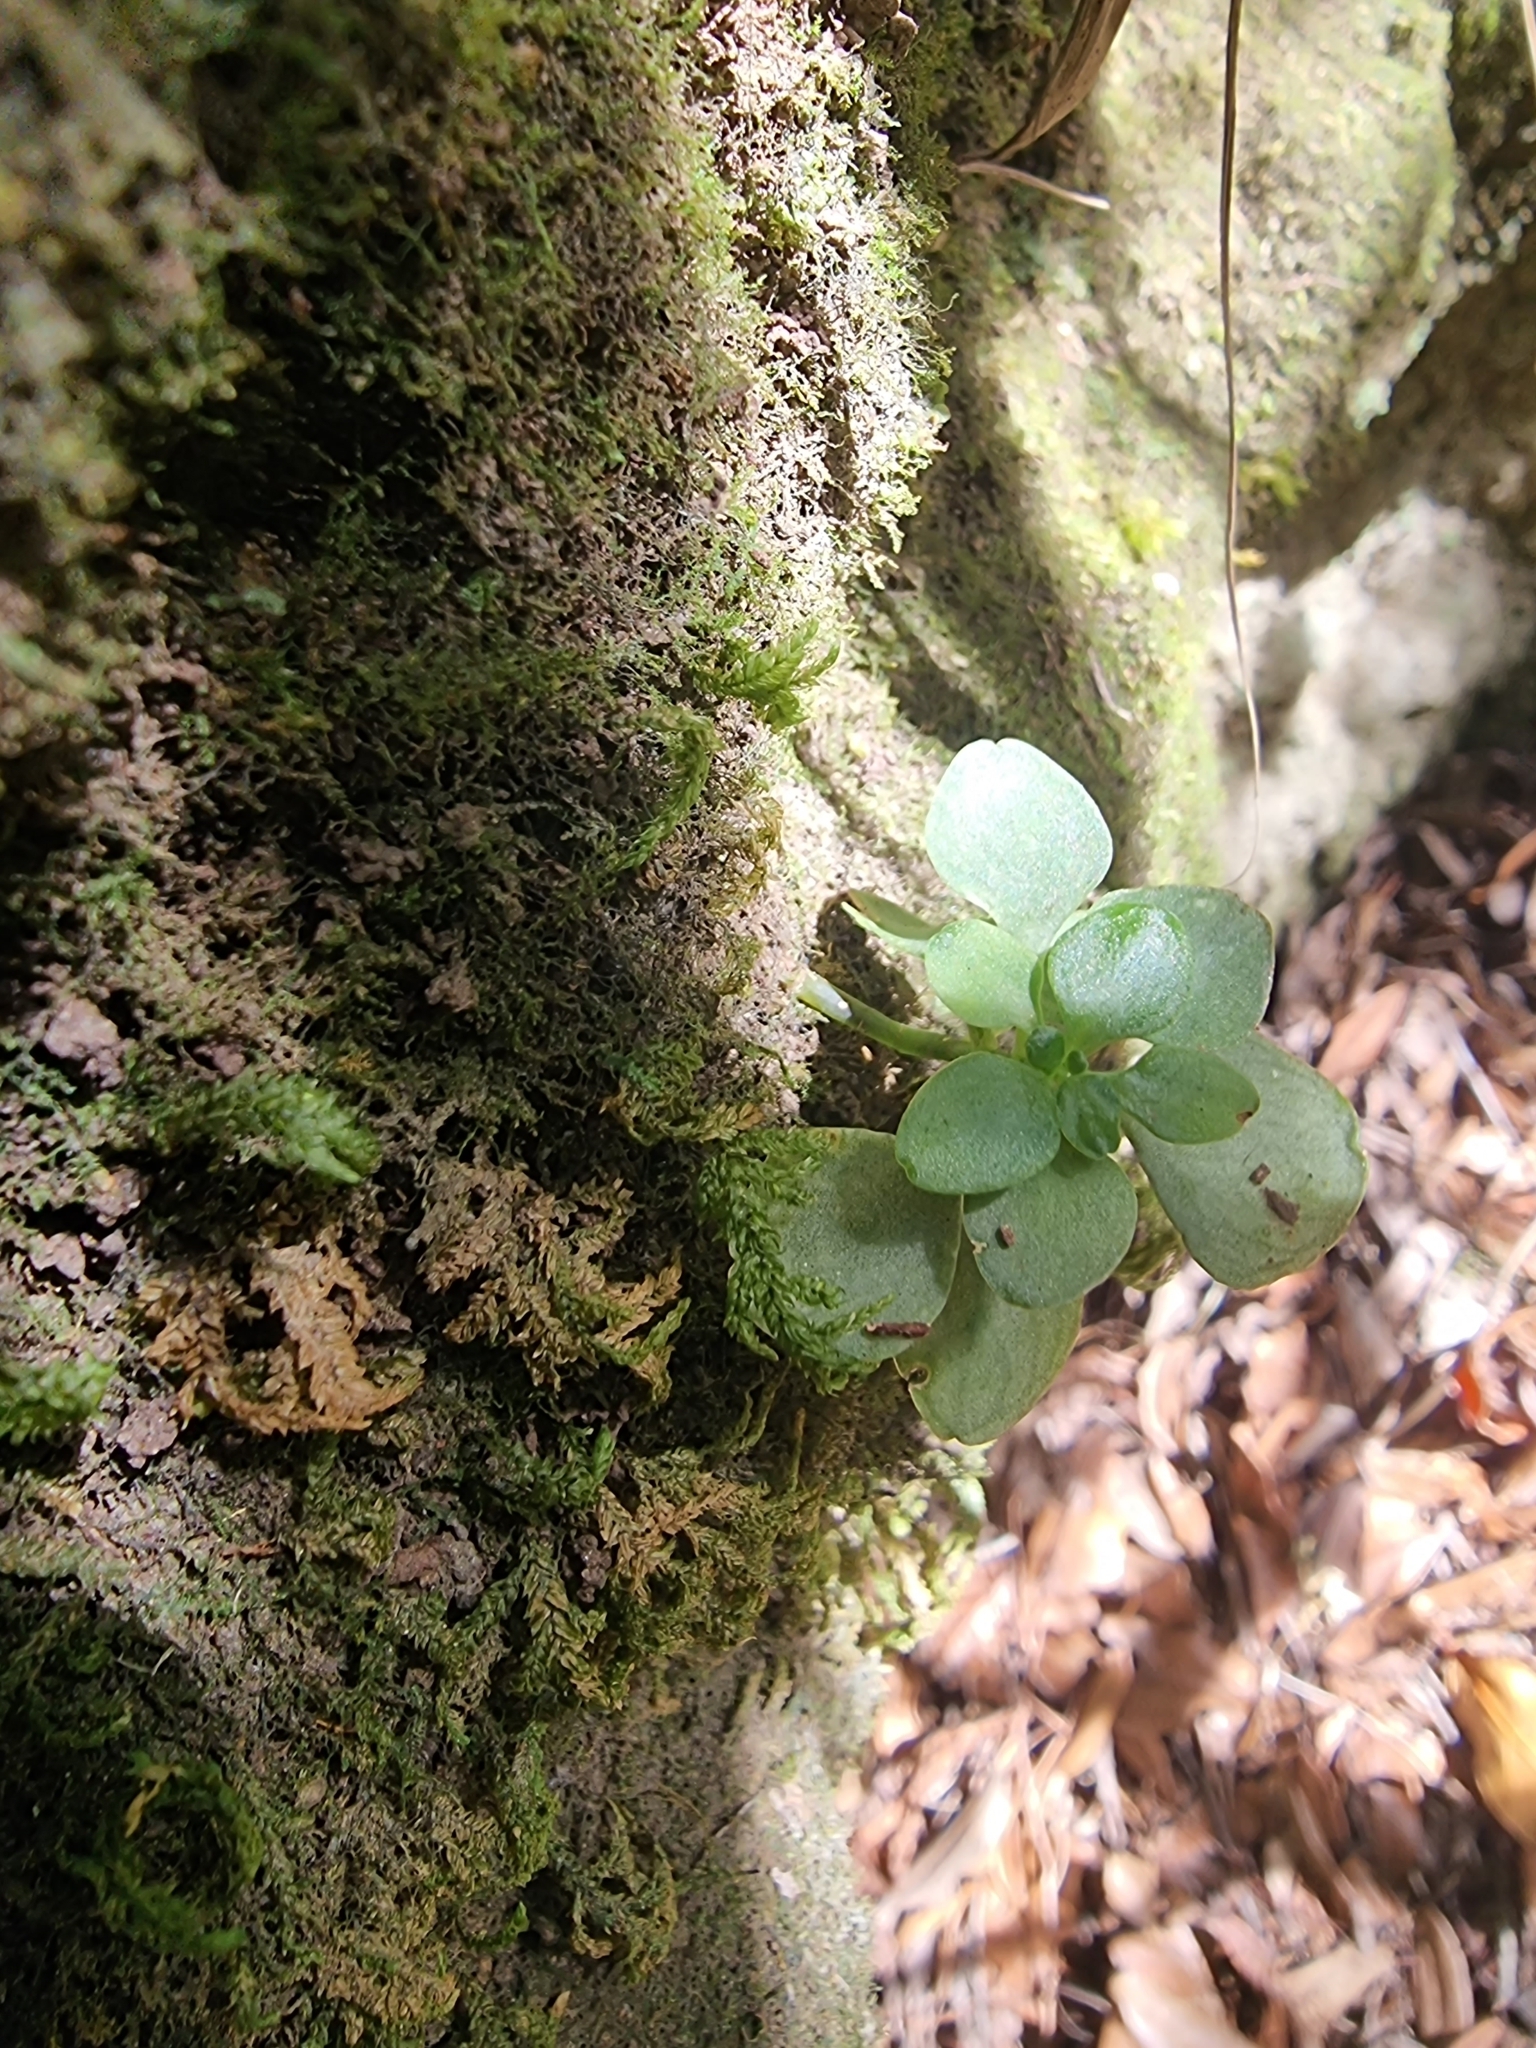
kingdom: Plantae
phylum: Tracheophyta
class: Magnoliopsida
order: Saxifragales
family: Crassulaceae
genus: Aichryson
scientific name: Aichryson divaricatum
